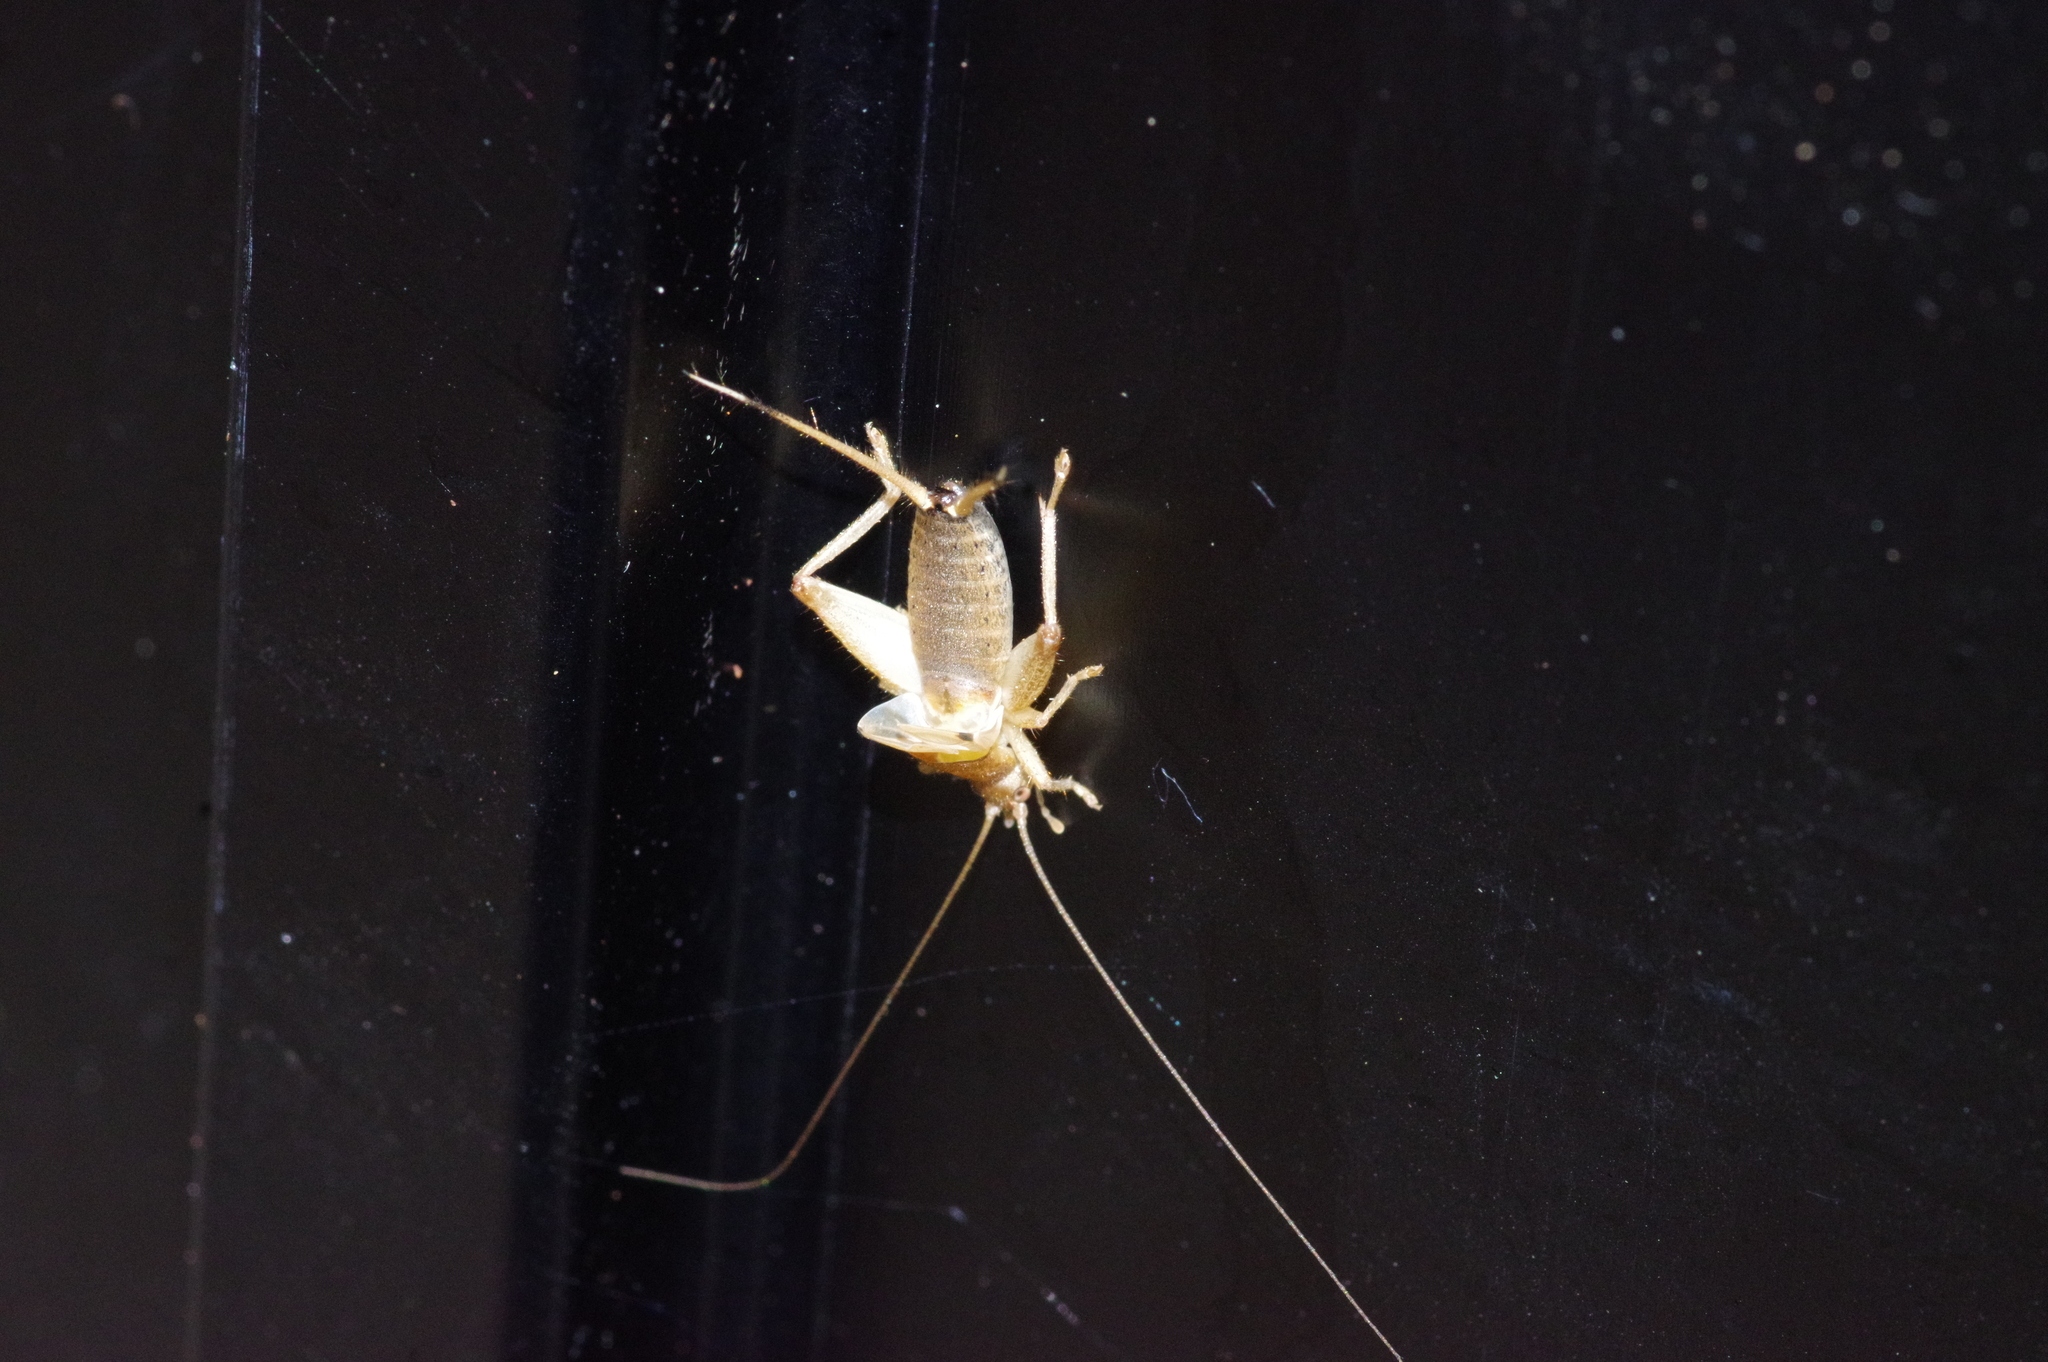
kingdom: Animalia
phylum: Arthropoda
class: Insecta
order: Orthoptera
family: Mogoplistidae
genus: Ornebius
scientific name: Ornebius bimaculatus
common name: Cricket
